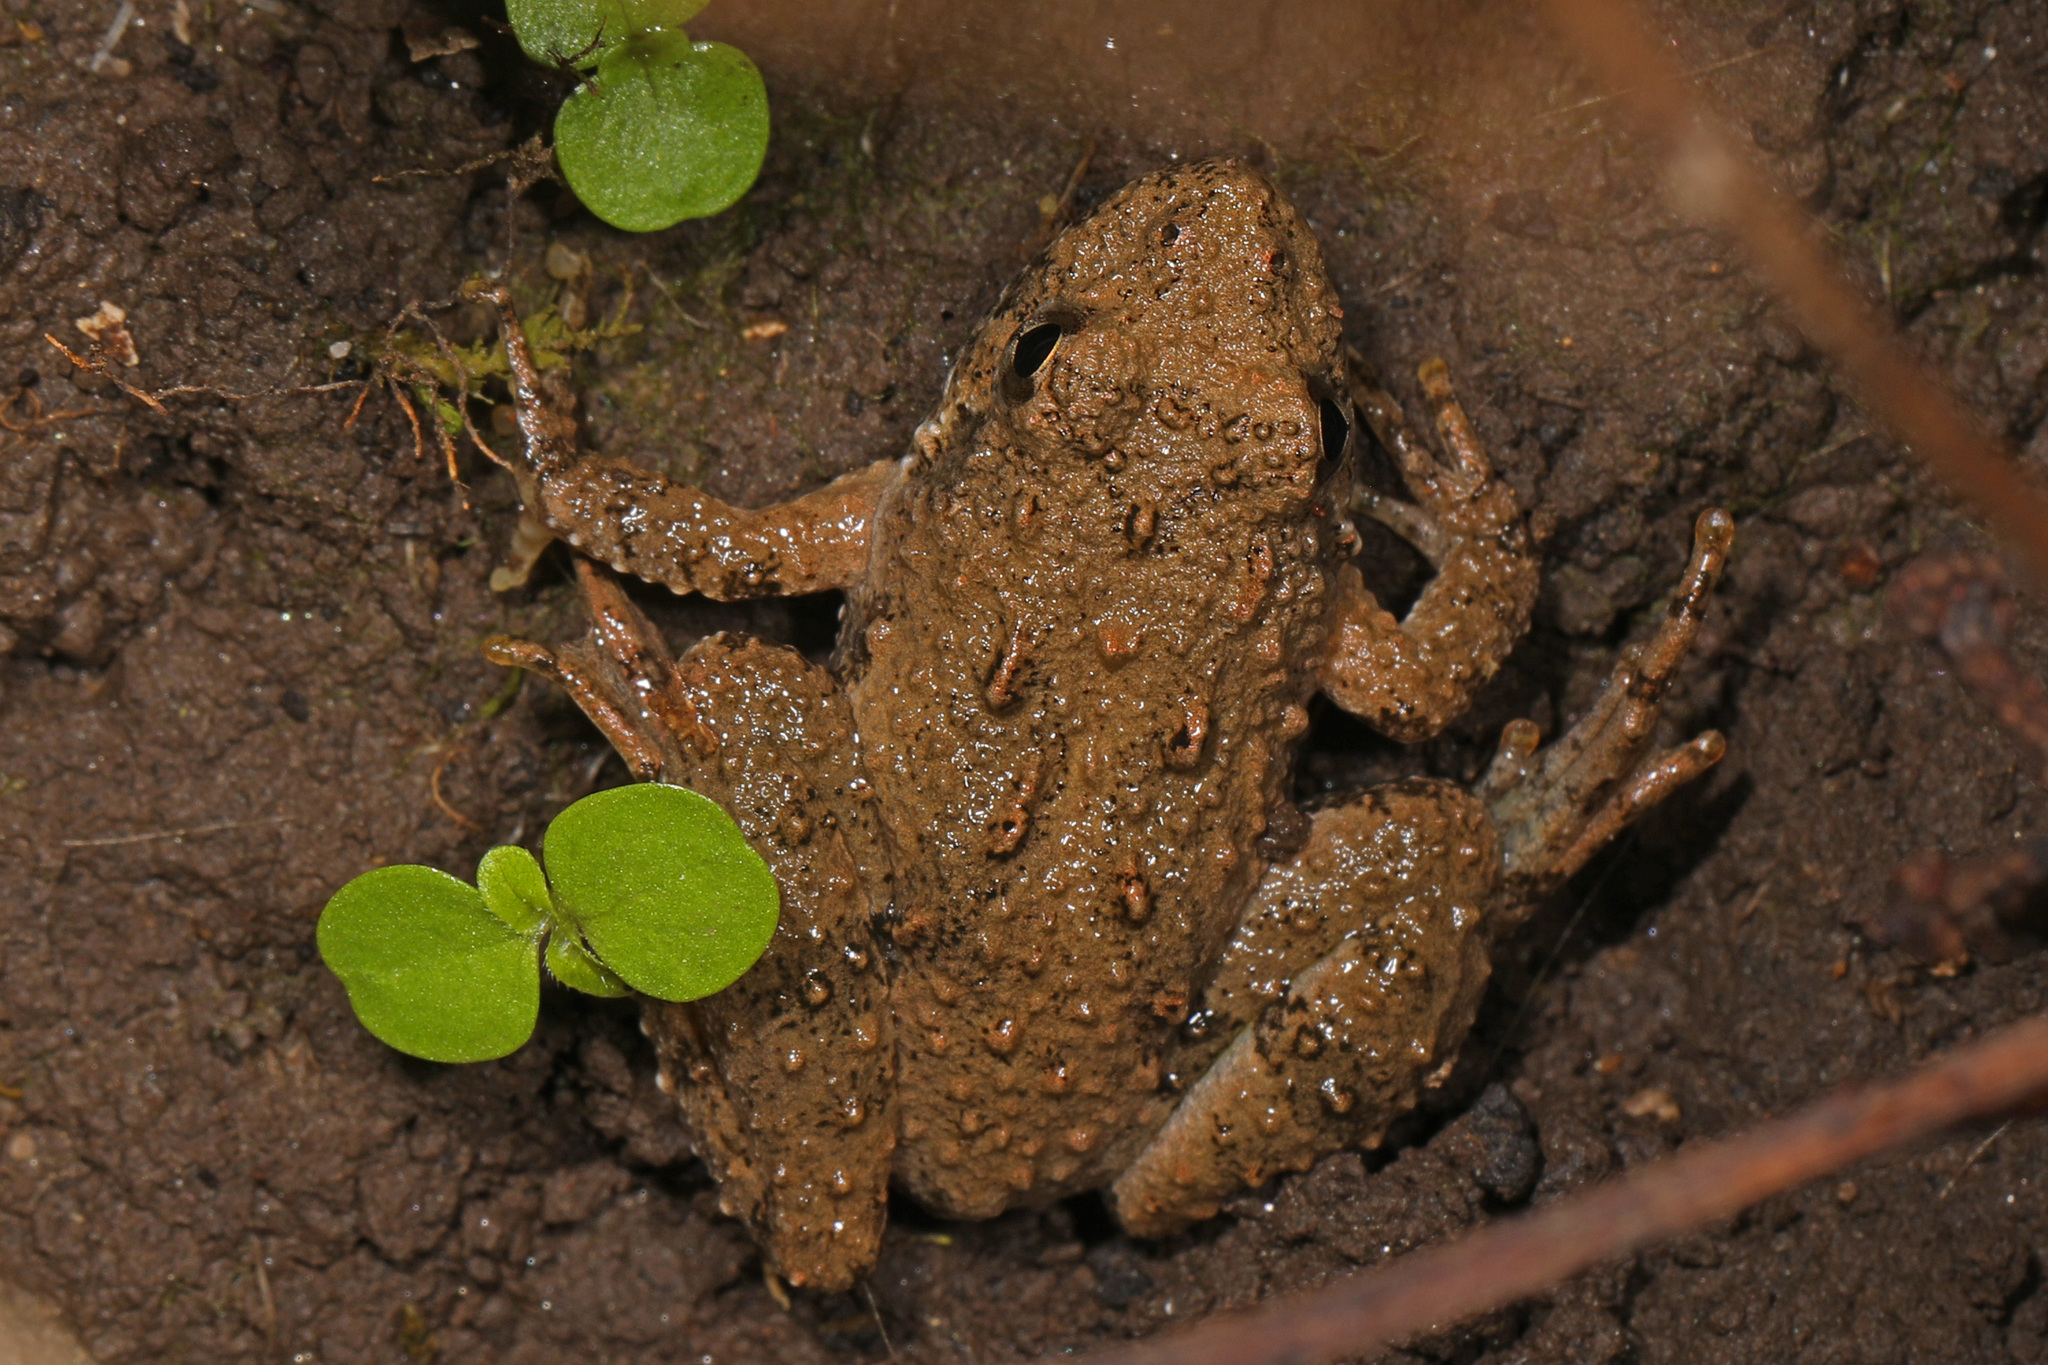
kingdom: Animalia
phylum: Chordata
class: Amphibia
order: Anura
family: Hylidae
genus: Acris
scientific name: Acris crepitans
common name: Northern cricket frog
